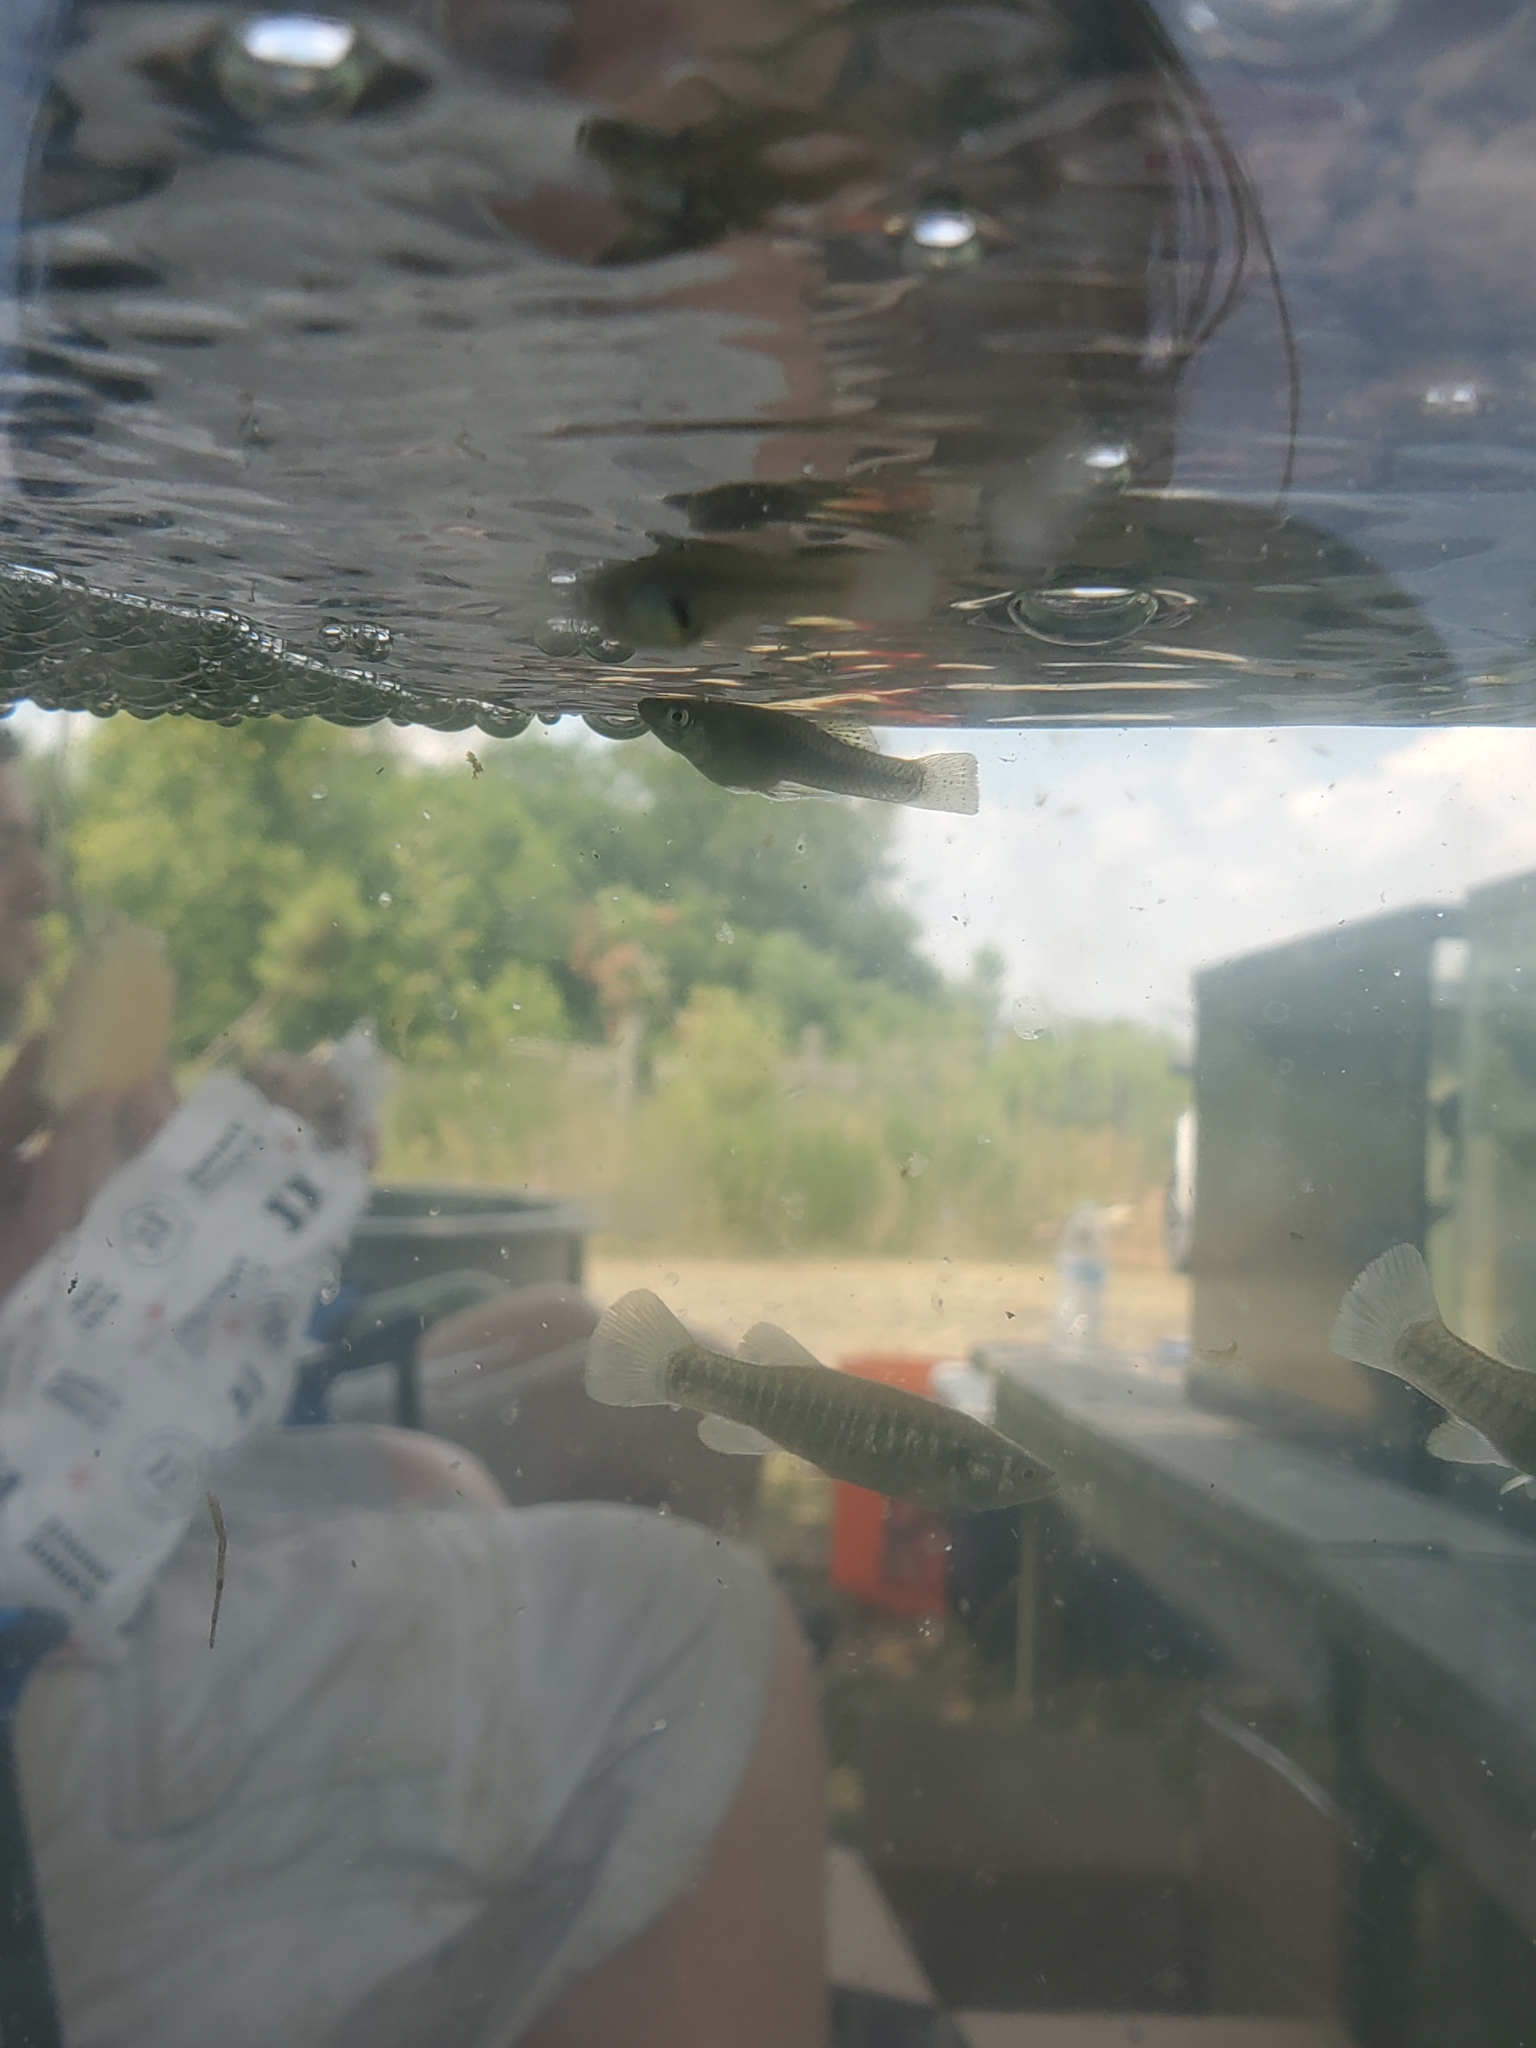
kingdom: Animalia
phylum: Chordata
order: Cyprinodontiformes
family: Poeciliidae
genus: Gambusia
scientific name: Gambusia holbrooki
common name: Eastern mosquitofish
